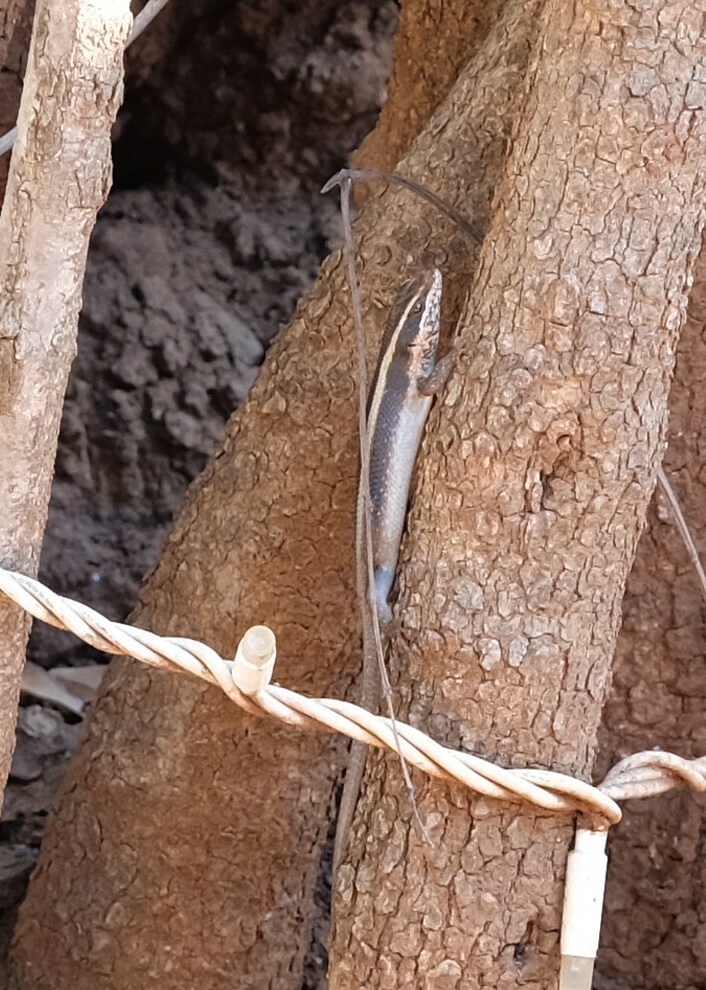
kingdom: Animalia
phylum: Chordata
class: Squamata
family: Scincidae
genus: Trachylepis
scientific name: Trachylepis striata
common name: African striped mabuya
